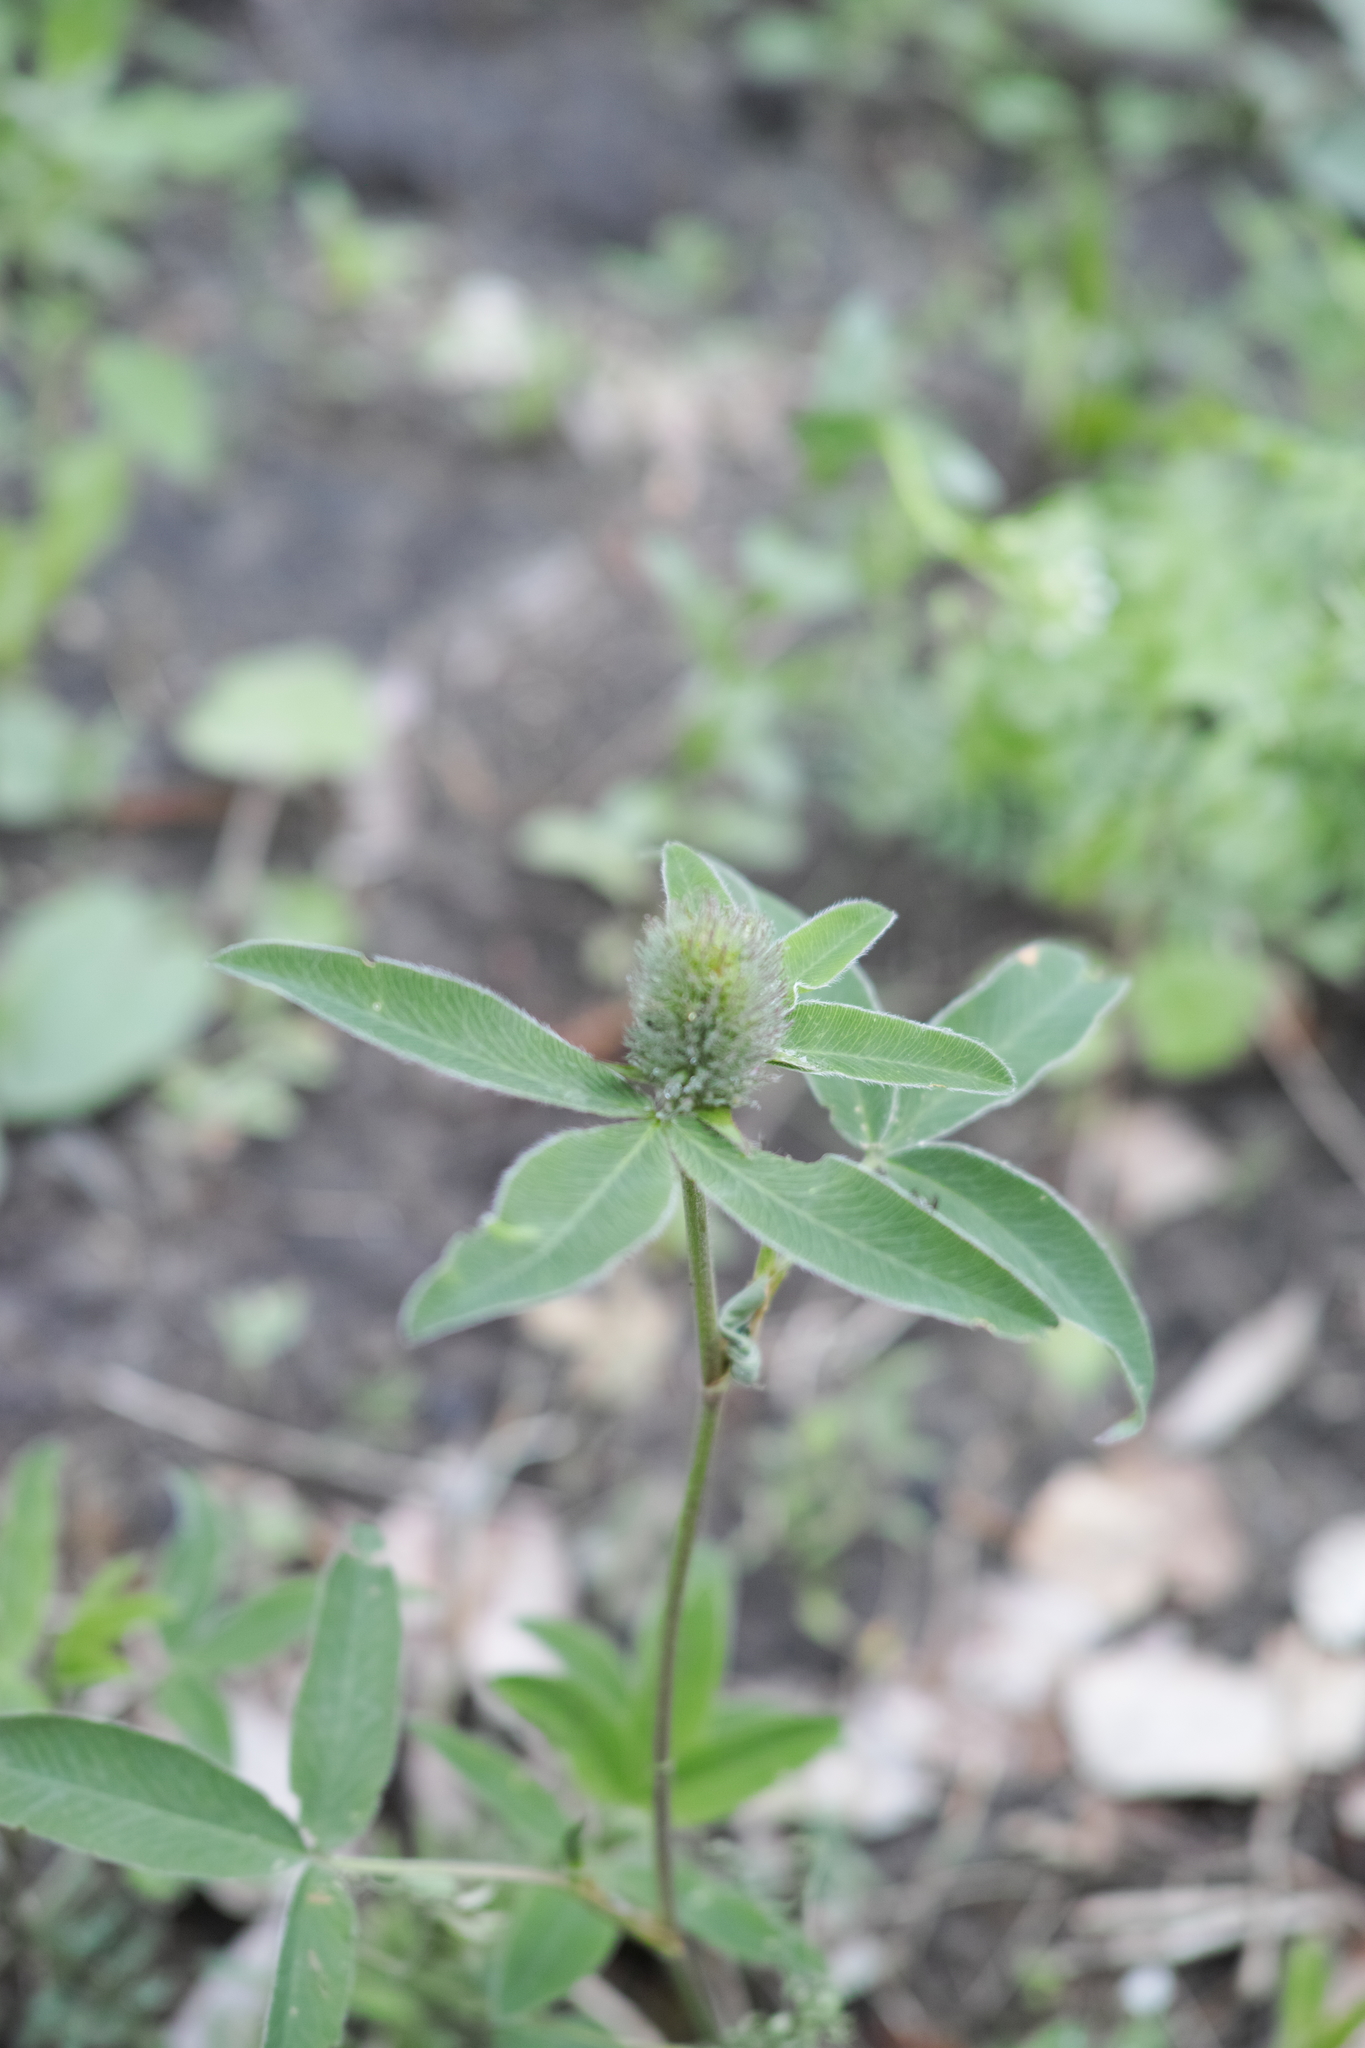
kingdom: Plantae
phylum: Tracheophyta
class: Magnoliopsida
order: Fabales
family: Fabaceae
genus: Trifolium
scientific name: Trifolium medium
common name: Zigzag clover
